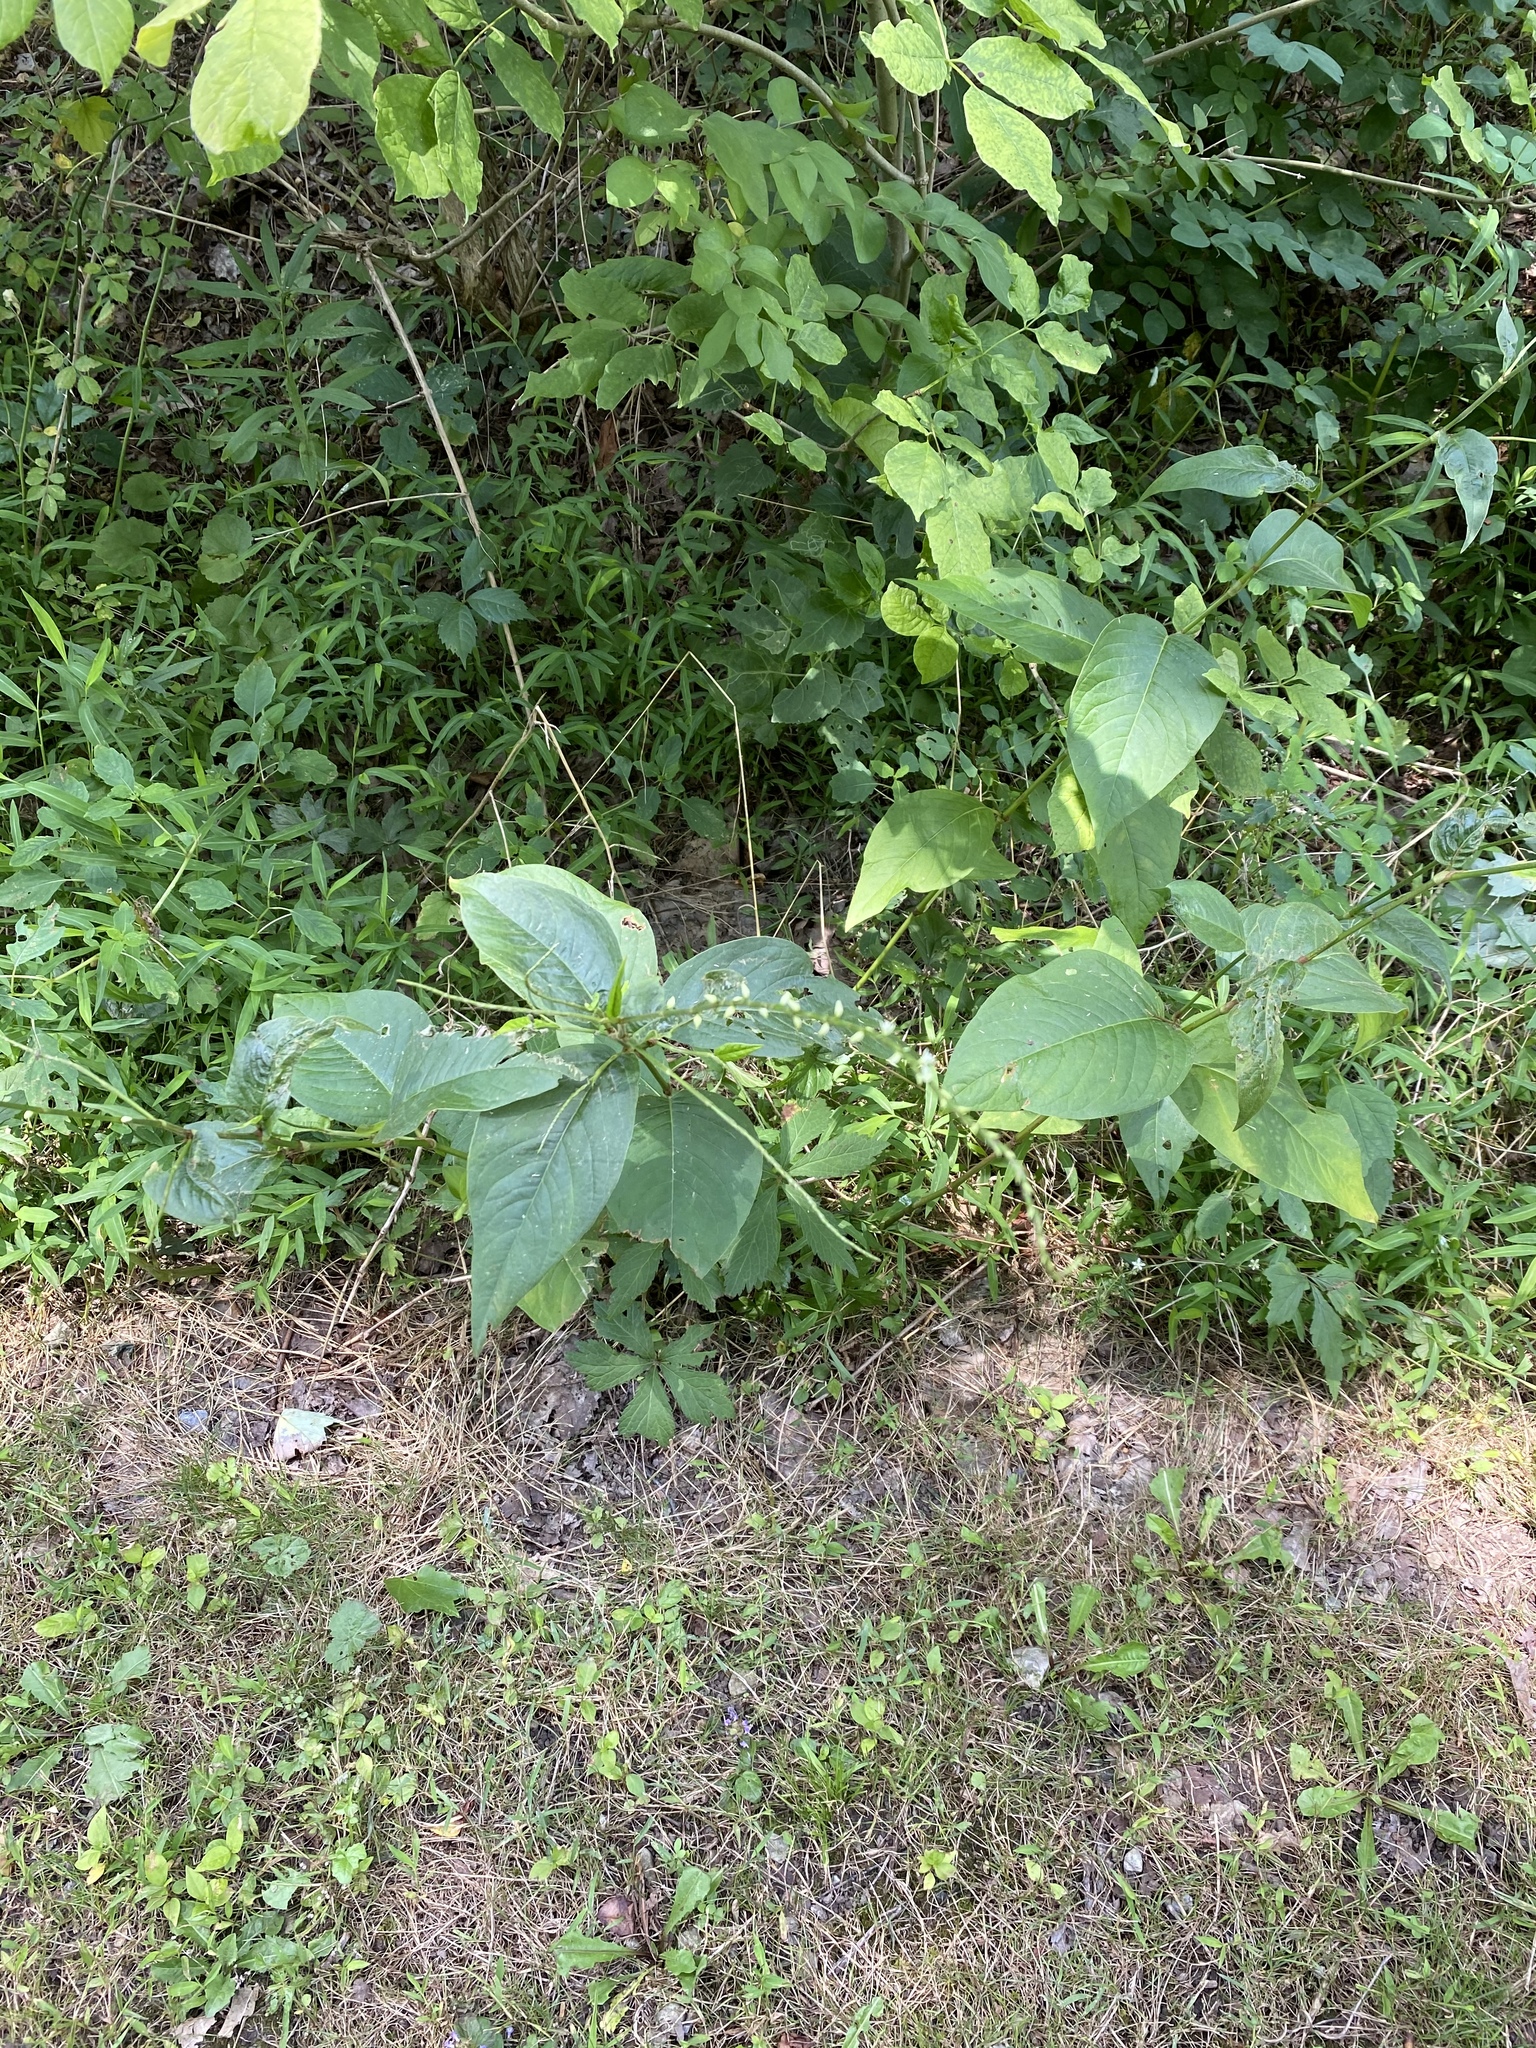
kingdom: Plantae
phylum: Tracheophyta
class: Magnoliopsida
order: Caryophyllales
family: Polygonaceae
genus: Persicaria
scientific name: Persicaria virginiana
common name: Jumpseed
